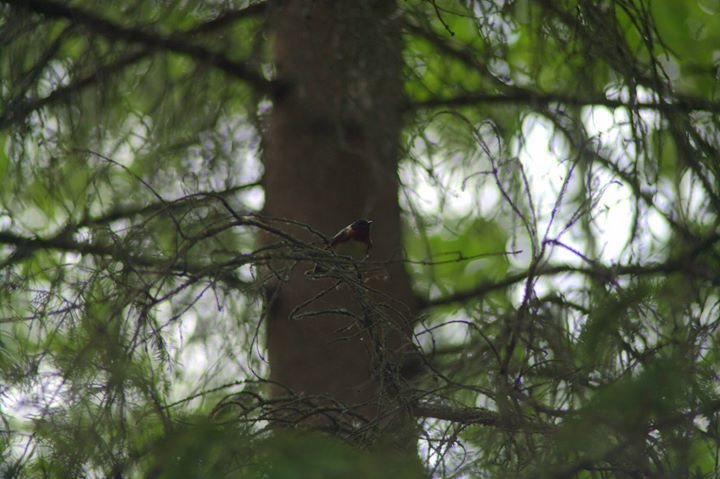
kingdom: Animalia
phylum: Chordata
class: Aves
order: Passeriformes
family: Parulidae
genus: Setophaga
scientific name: Setophaga castanea
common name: Bay-breasted warbler
